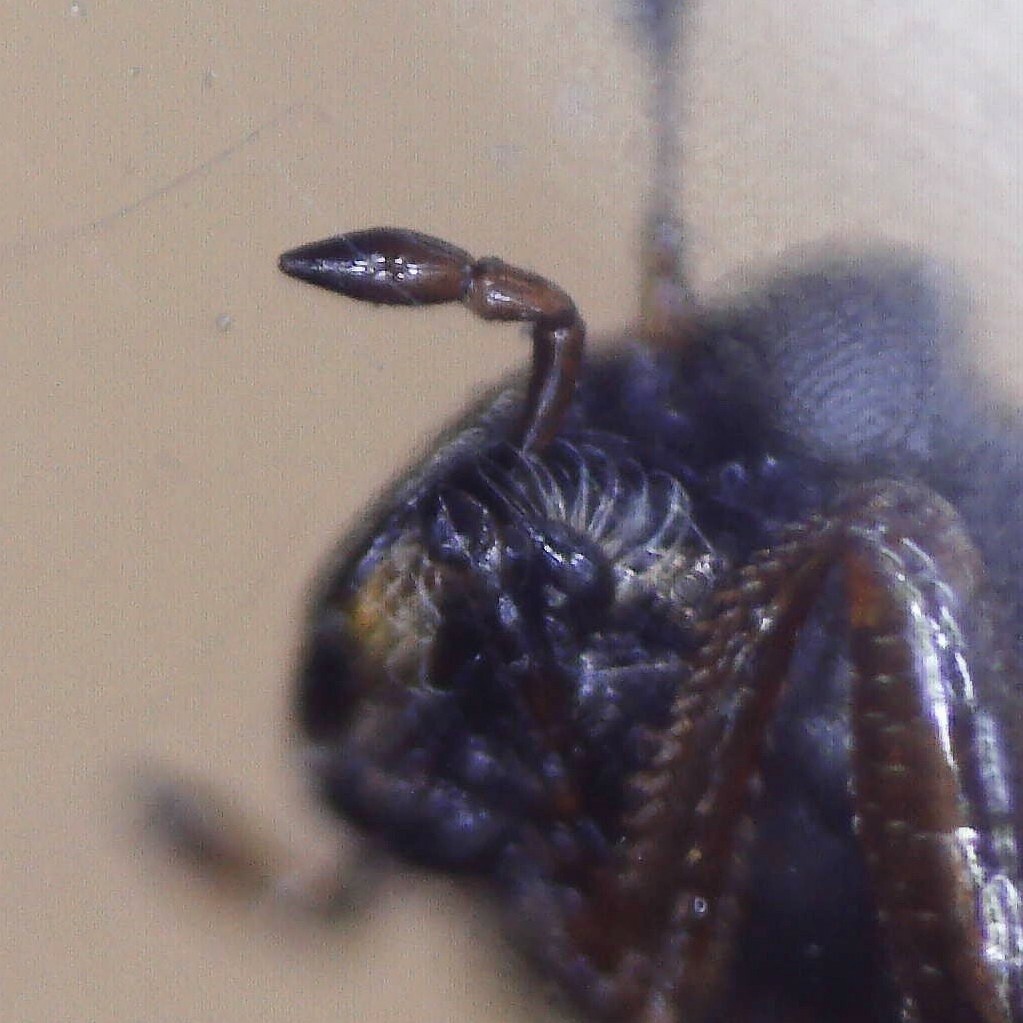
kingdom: Animalia
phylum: Arthropoda
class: Insecta
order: Coleoptera
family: Helophoridae
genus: Helophorus
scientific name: Helophorus brevipalpis
